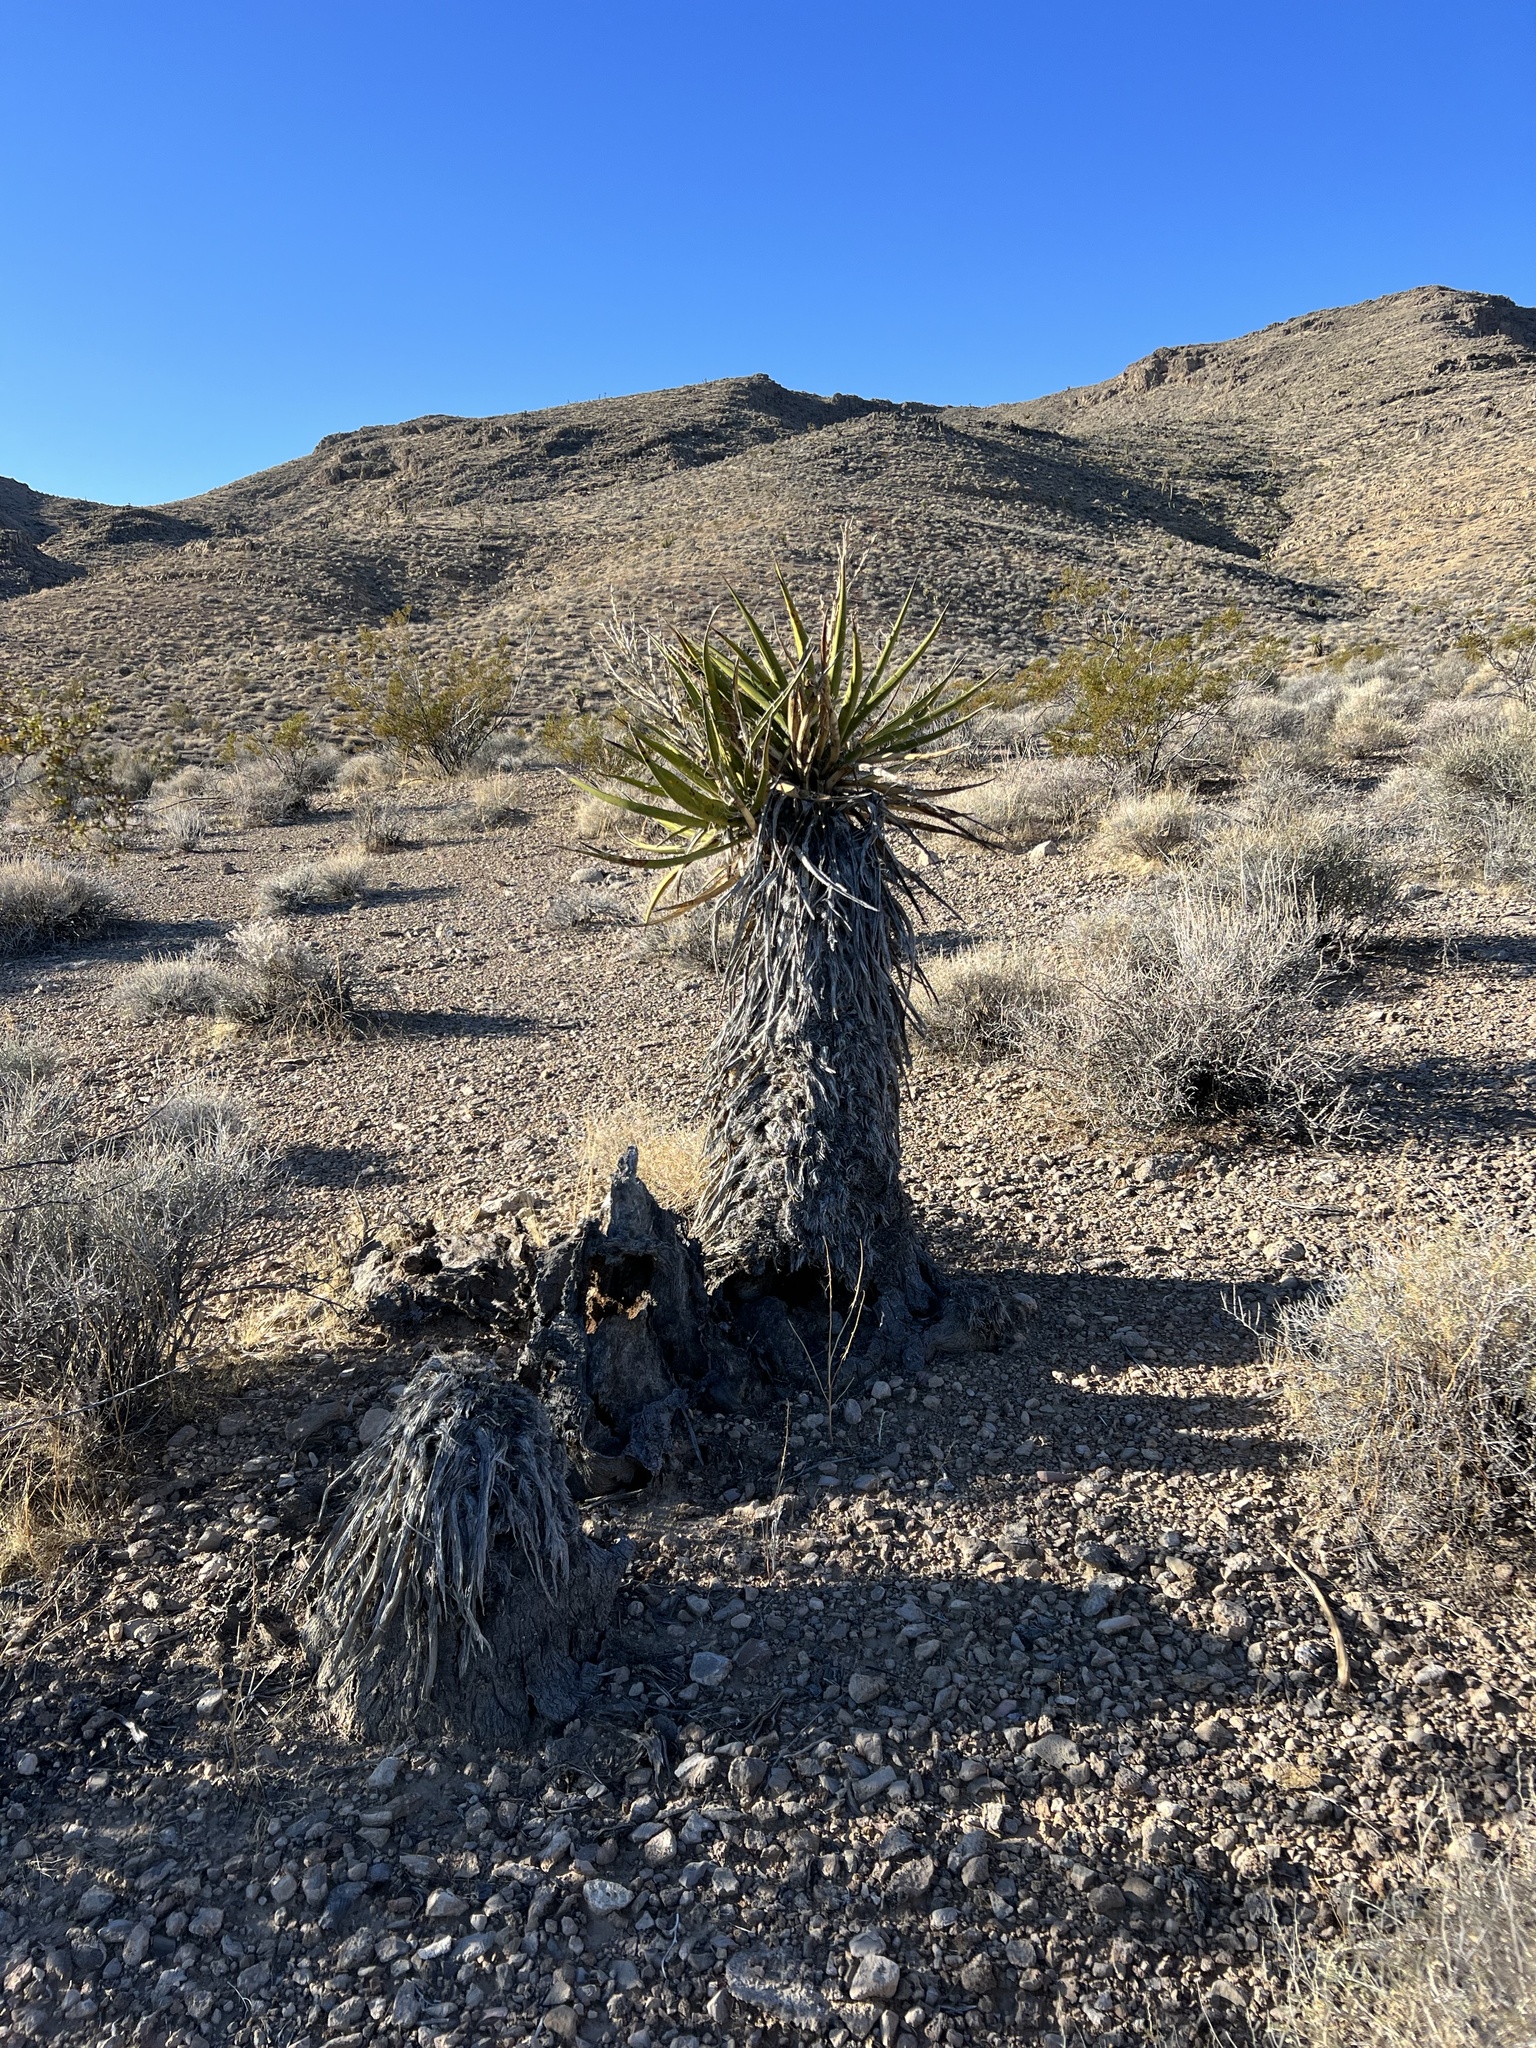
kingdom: Plantae
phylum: Tracheophyta
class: Liliopsida
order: Asparagales
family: Asparagaceae
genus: Yucca
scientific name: Yucca schidigera
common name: Mojave yucca
